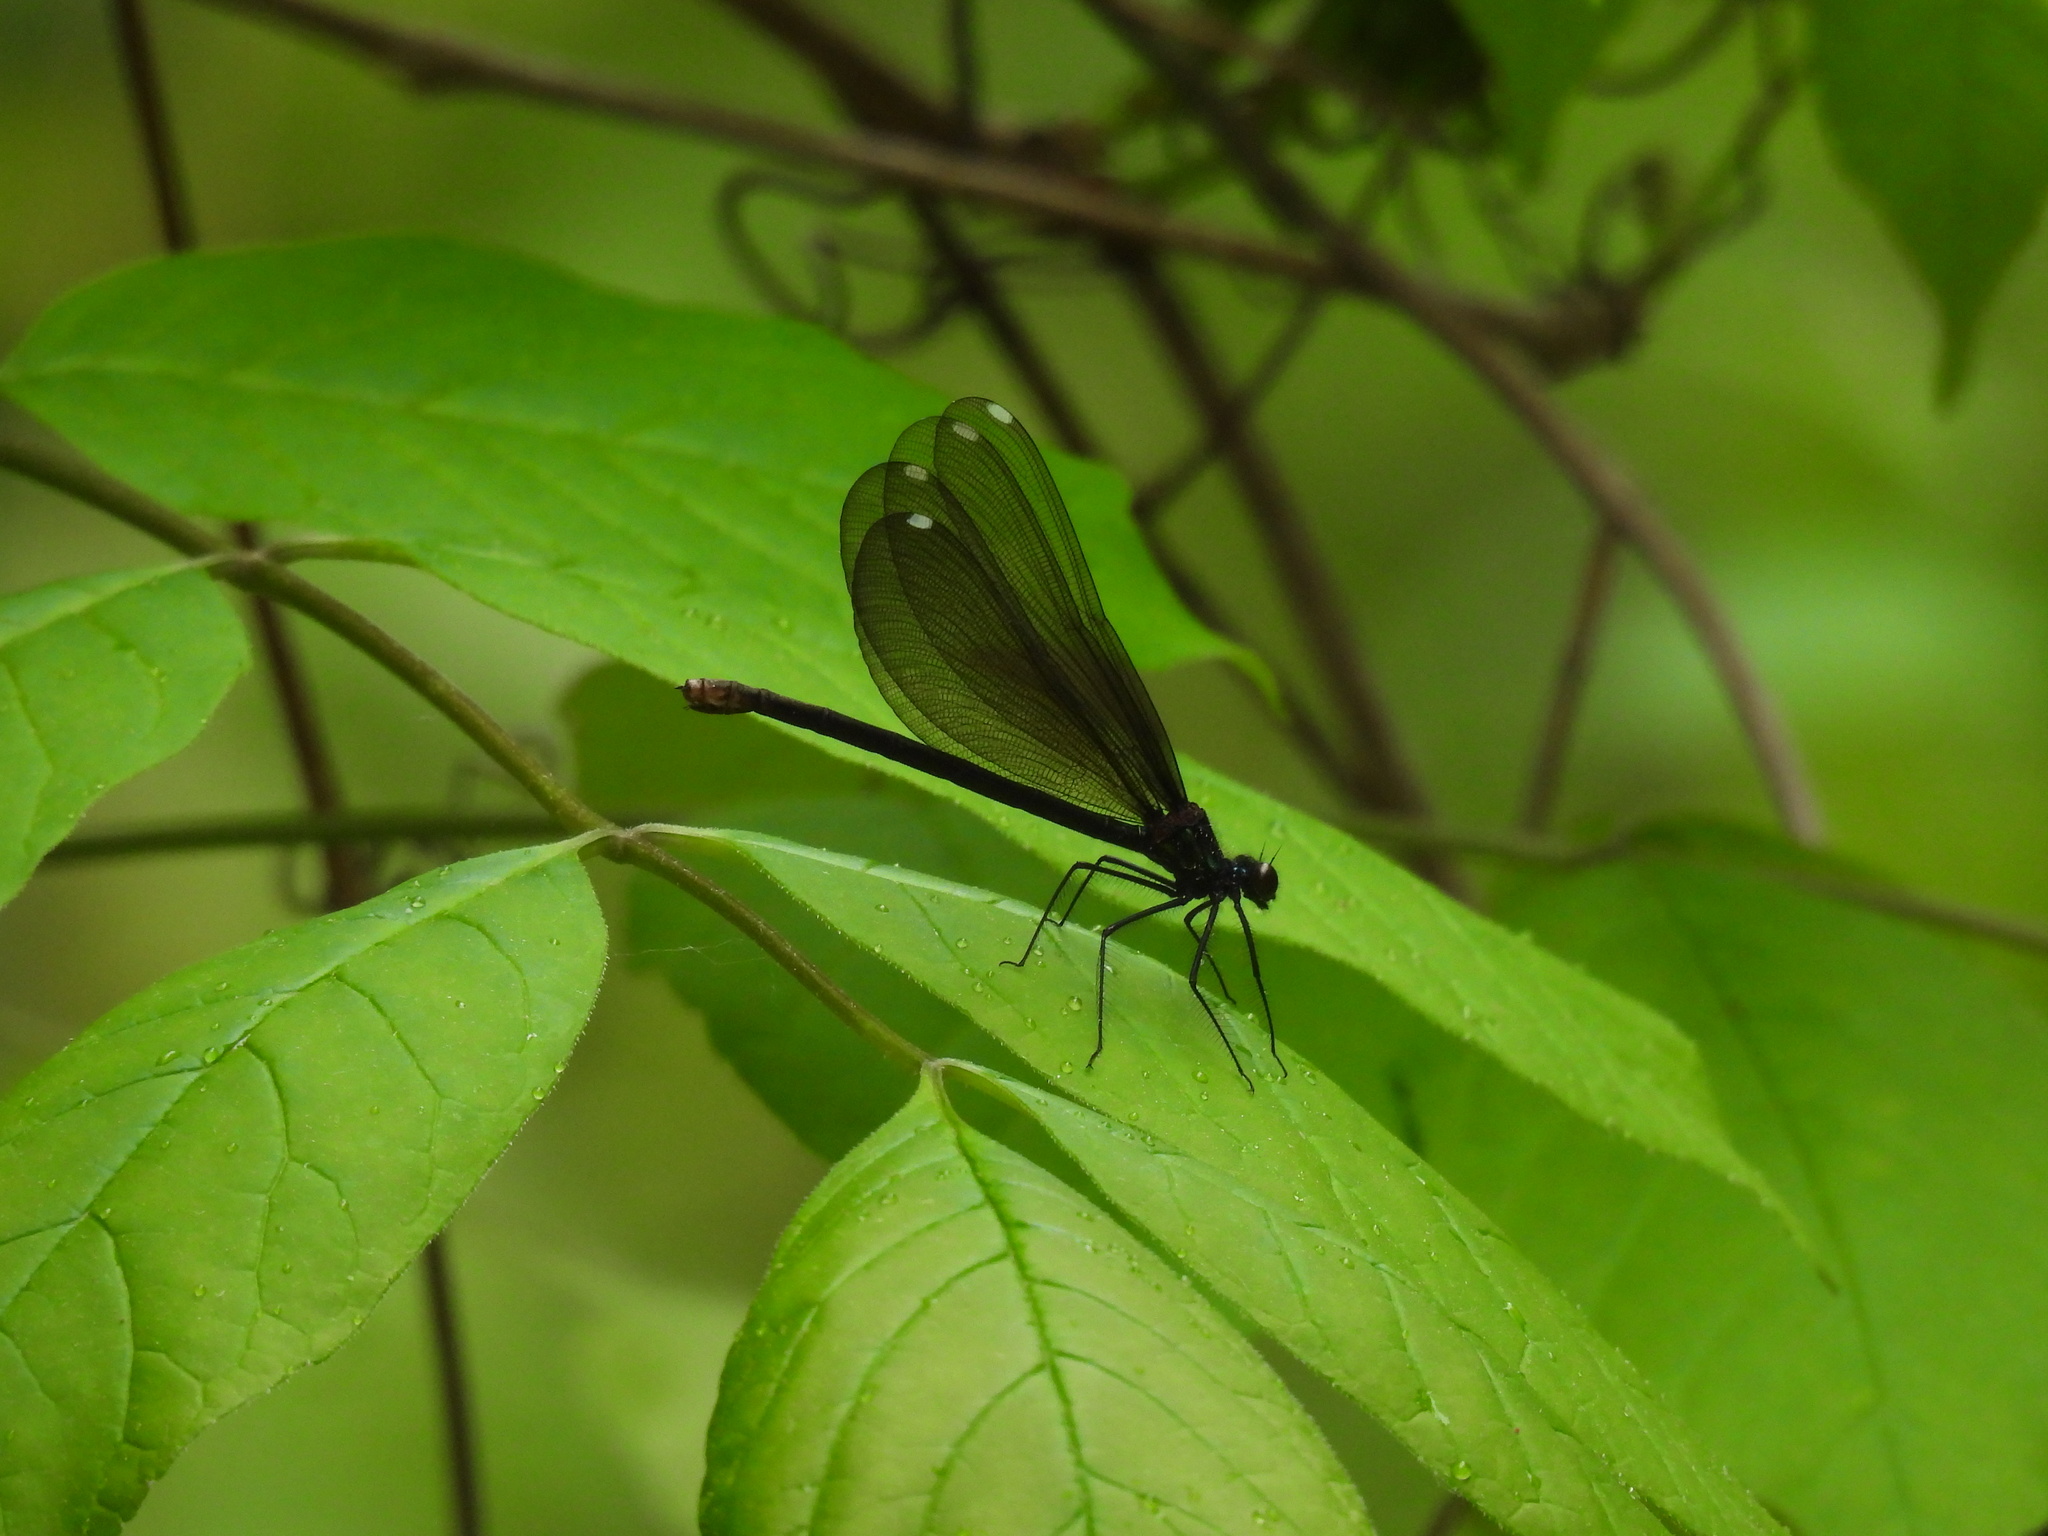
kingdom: Animalia
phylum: Arthropoda
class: Insecta
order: Odonata
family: Calopterygidae
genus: Calopteryx
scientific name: Calopteryx maculata
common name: Ebony jewelwing
